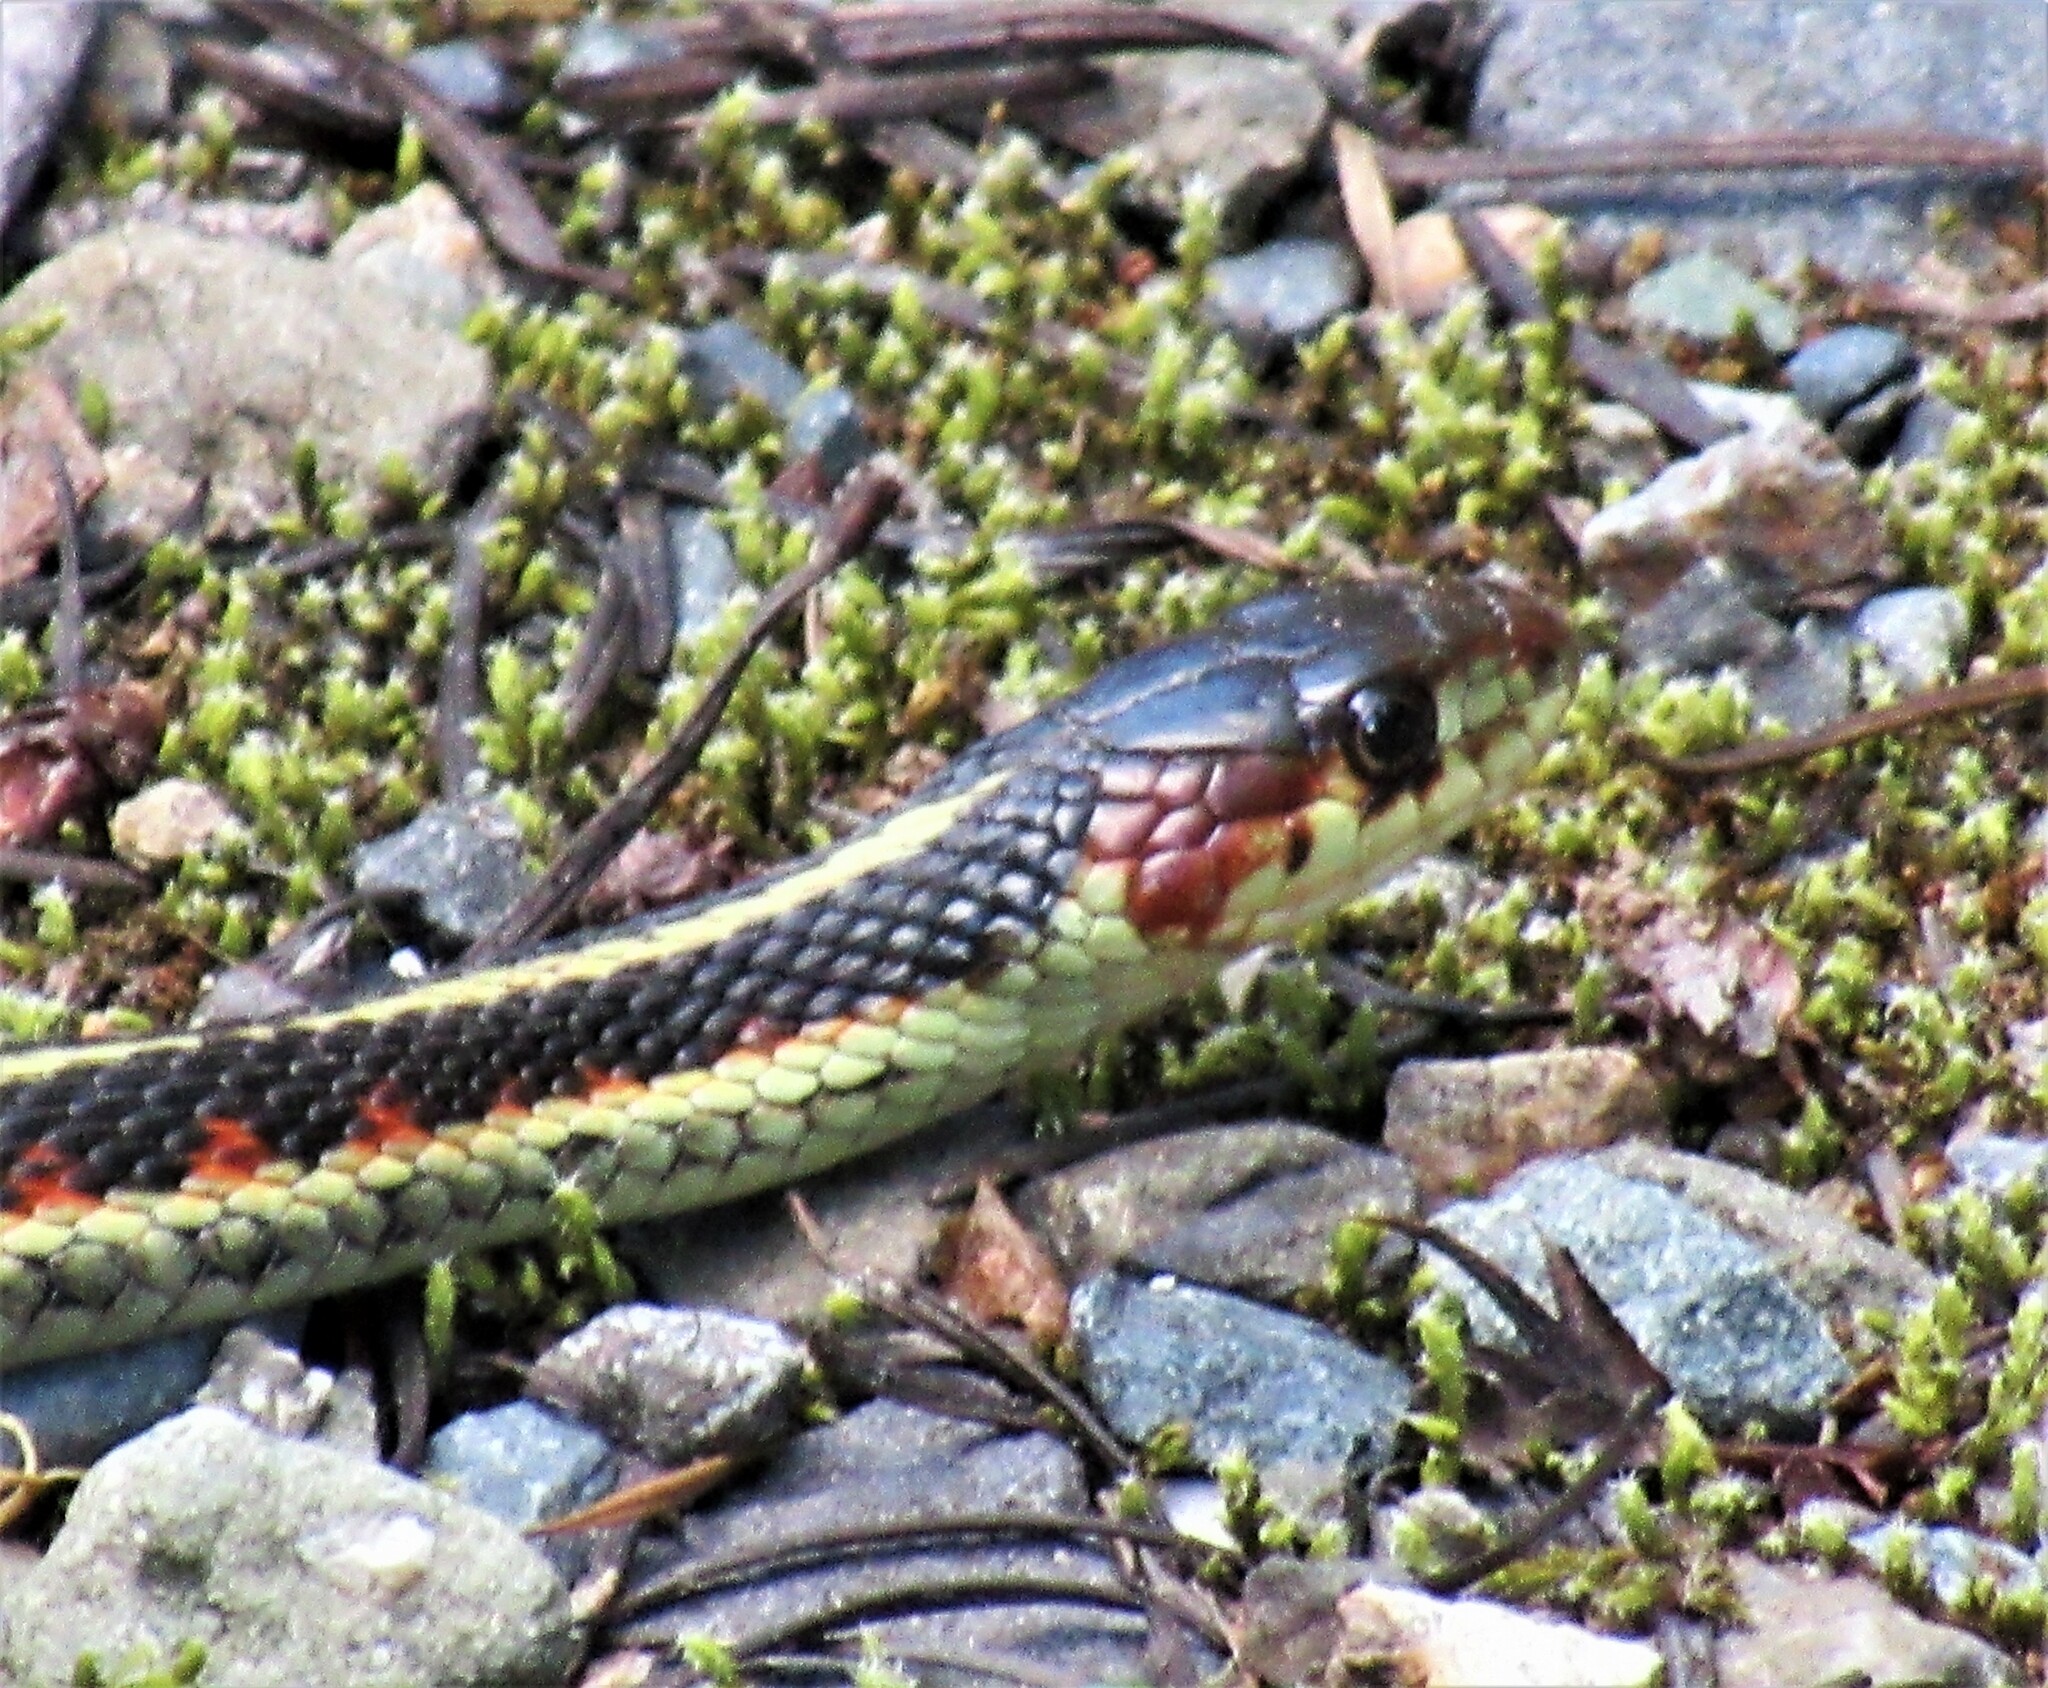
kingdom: Animalia
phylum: Chordata
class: Squamata
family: Colubridae
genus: Thamnophis
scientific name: Thamnophis sirtalis
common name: Common garter snake
